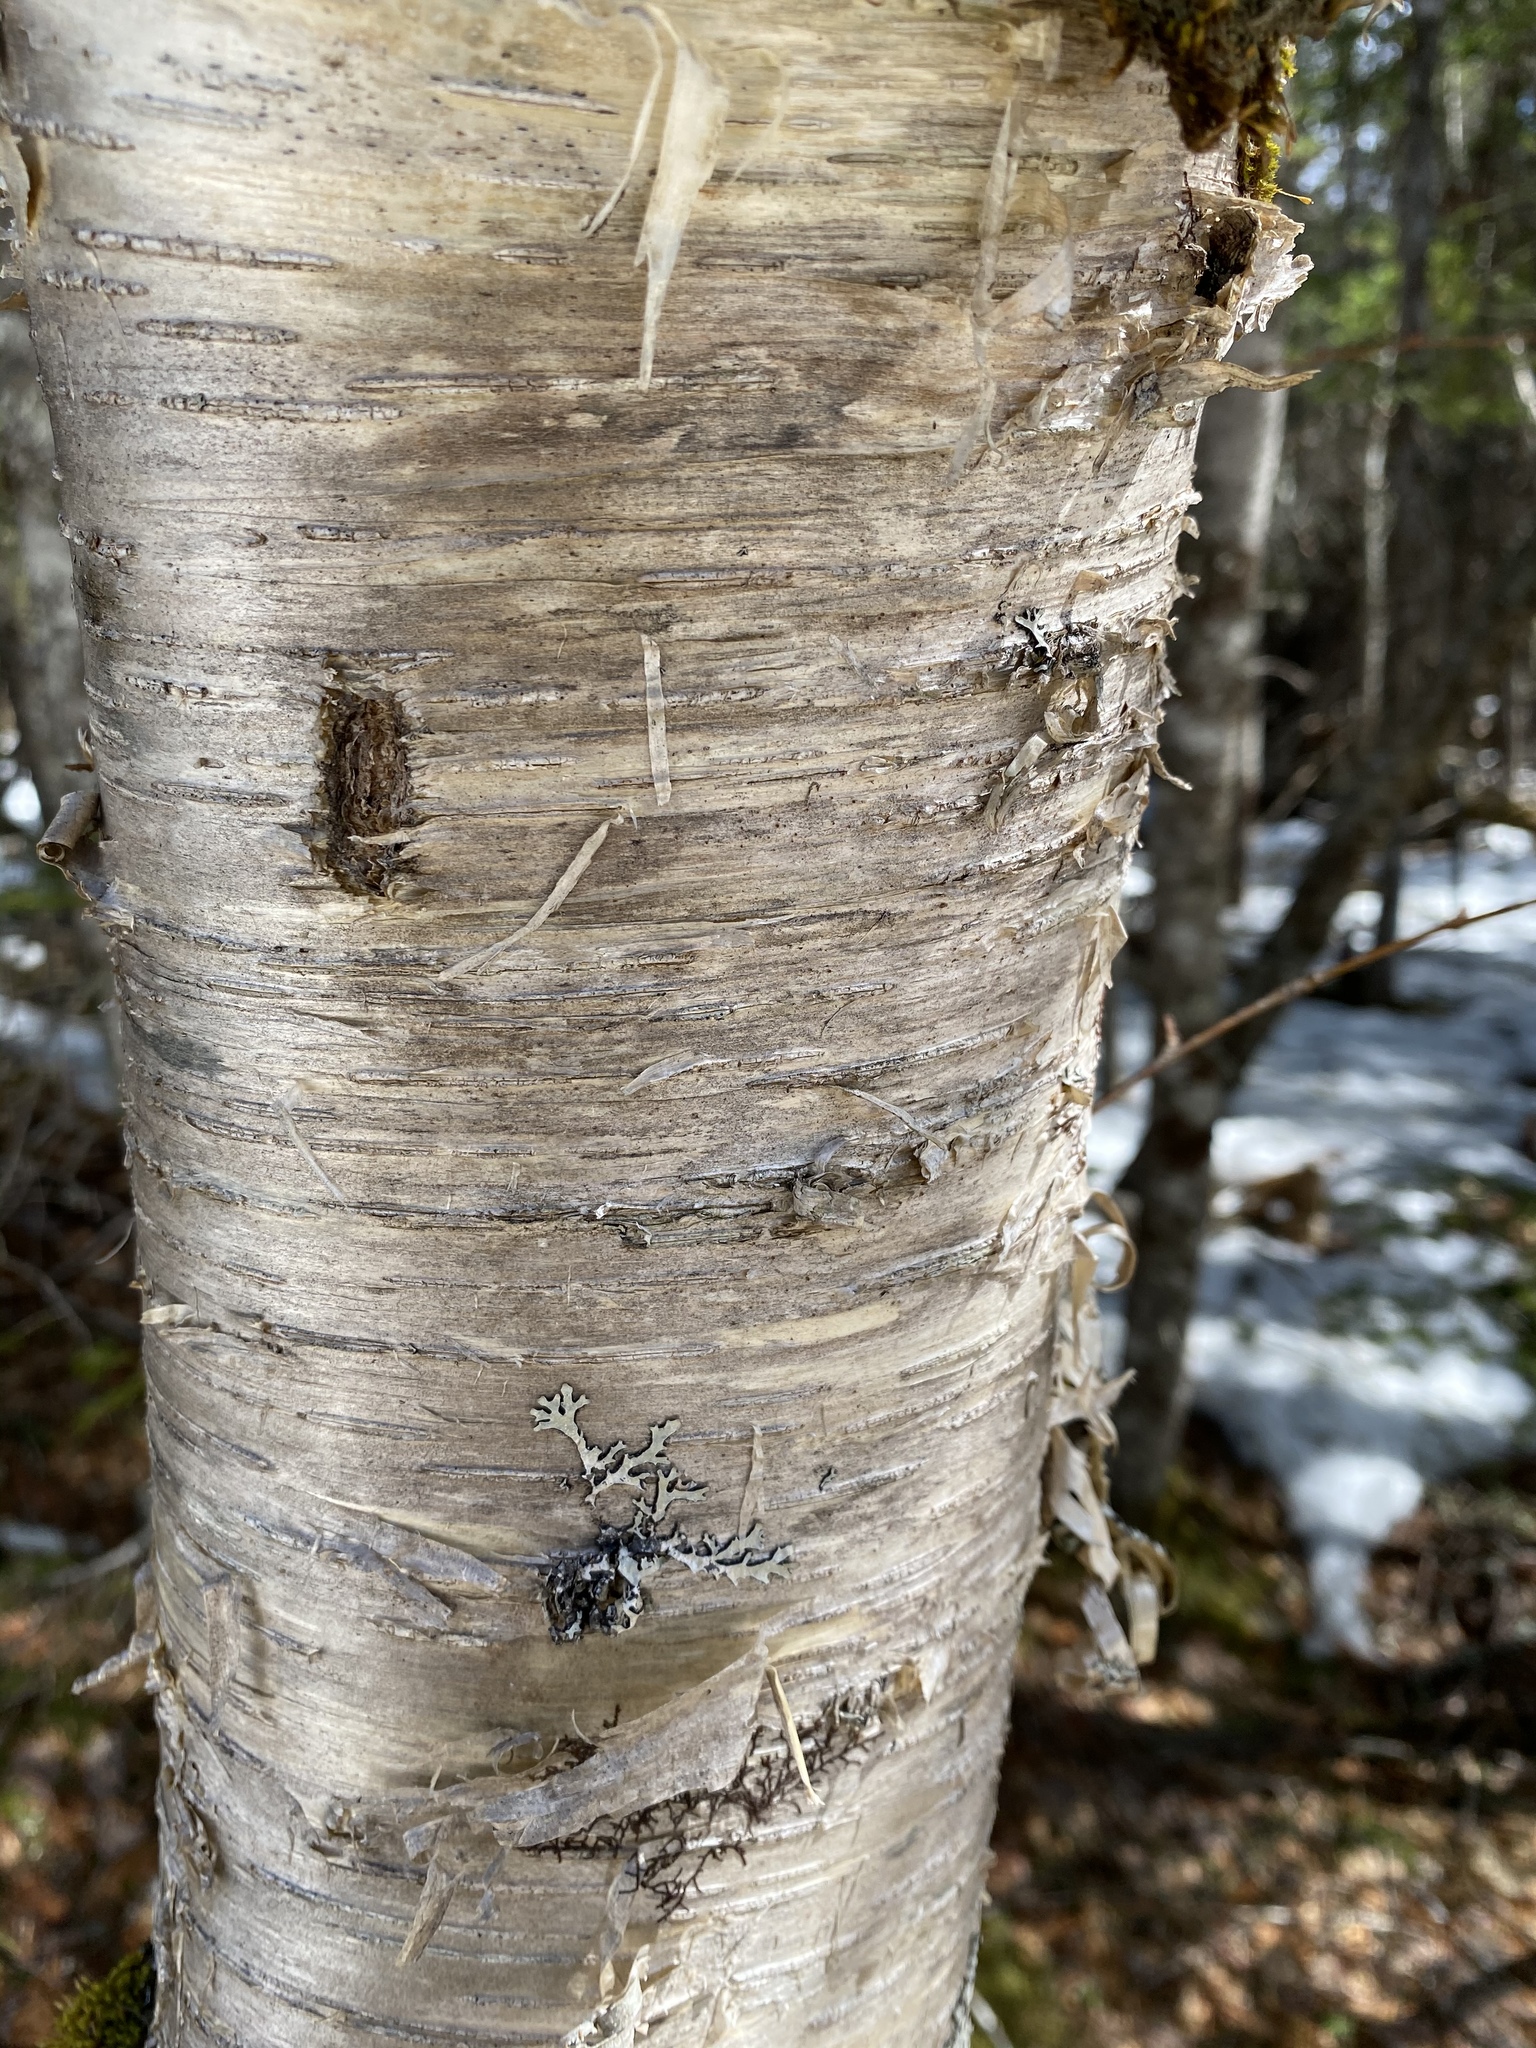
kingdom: Plantae
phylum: Tracheophyta
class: Magnoliopsida
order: Fagales
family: Betulaceae
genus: Betula
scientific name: Betula alleghaniensis
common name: Yellow birch
